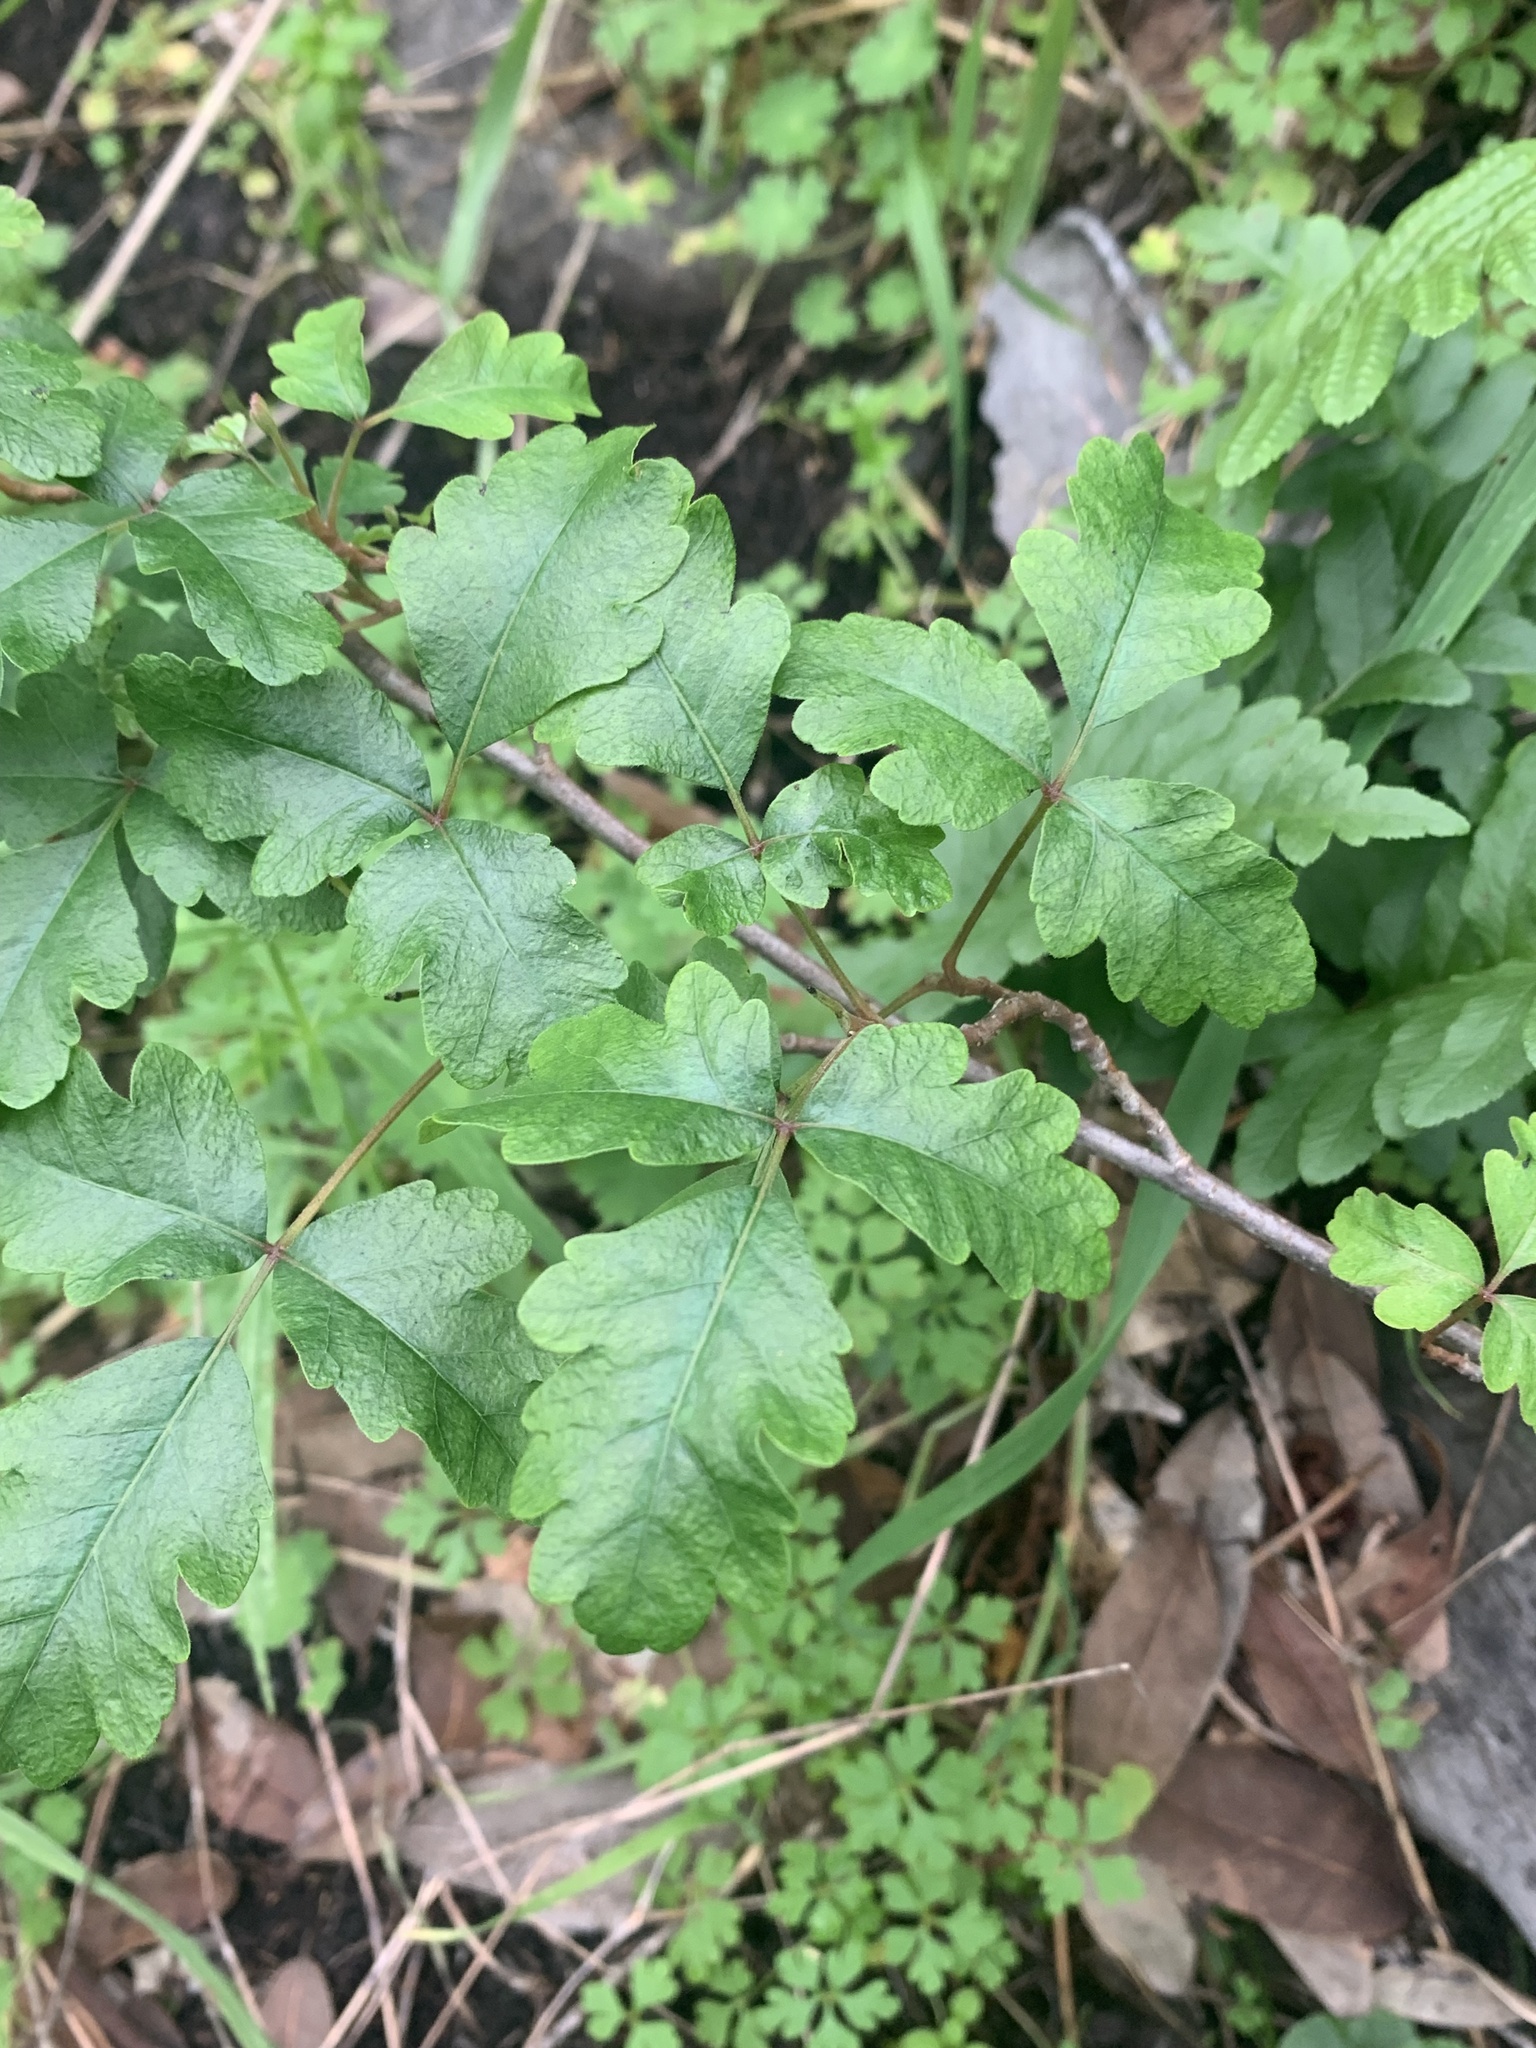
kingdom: Plantae
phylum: Tracheophyta
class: Magnoliopsida
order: Sapindales
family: Anacardiaceae
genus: Toxicodendron
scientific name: Toxicodendron diversilobum
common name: Pacific poison-oak
